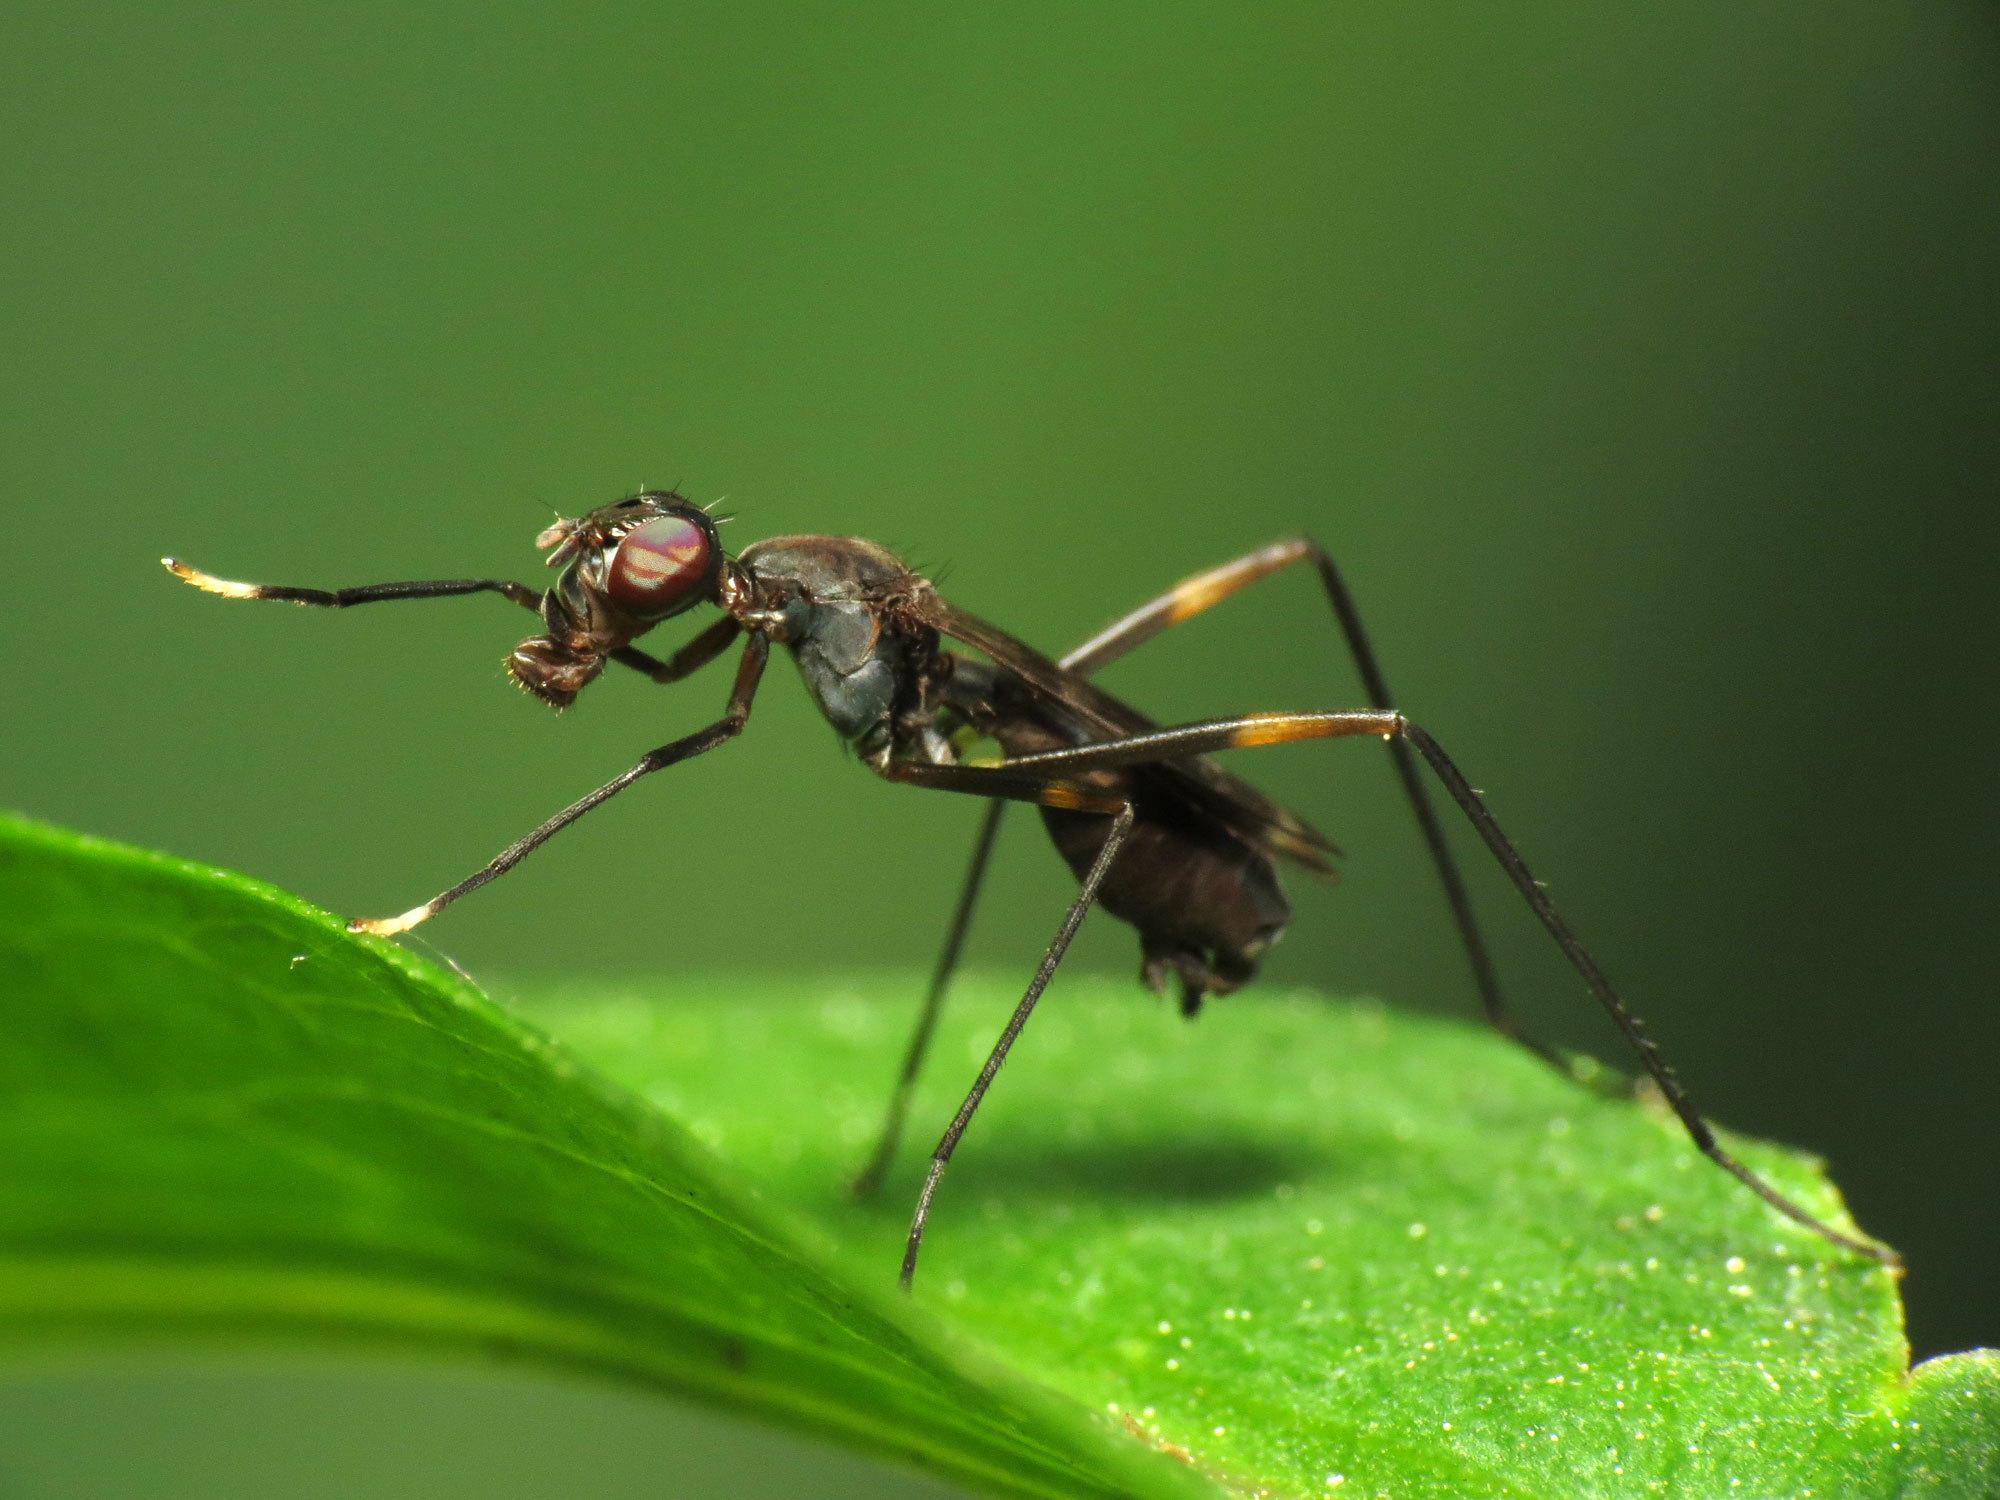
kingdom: Animalia
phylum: Arthropoda
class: Insecta
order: Diptera
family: Micropezidae
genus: Taeniaptera
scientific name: Taeniaptera trivittata
